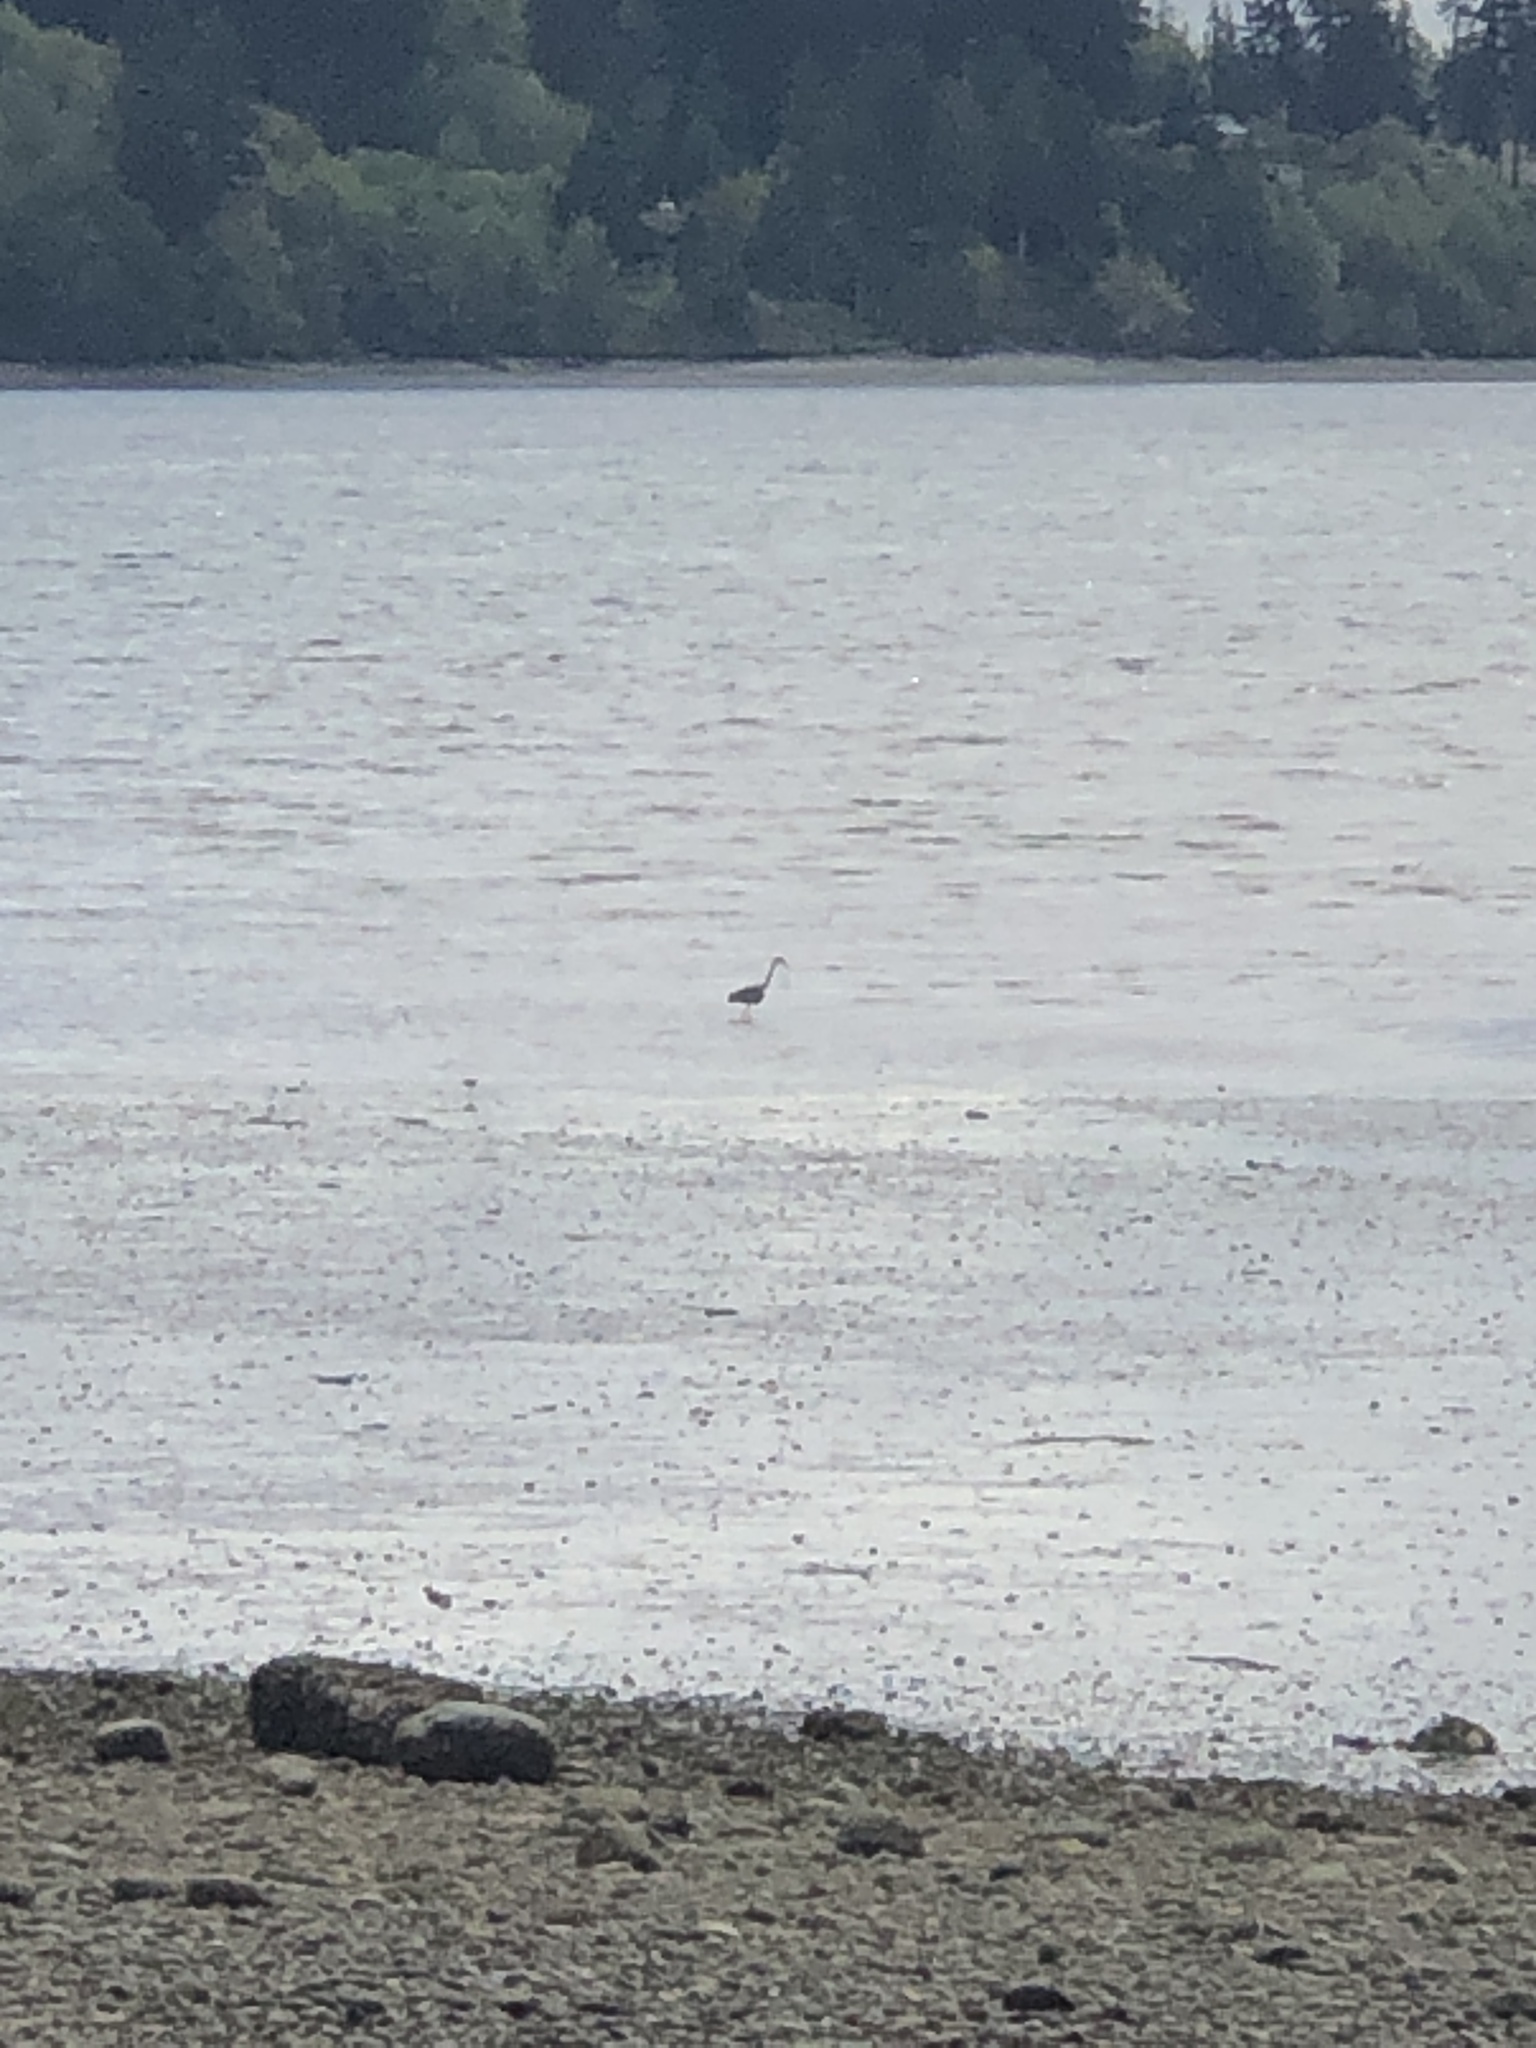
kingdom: Animalia
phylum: Chordata
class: Aves
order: Pelecaniformes
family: Ardeidae
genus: Ardea
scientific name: Ardea herodias
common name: Great blue heron
